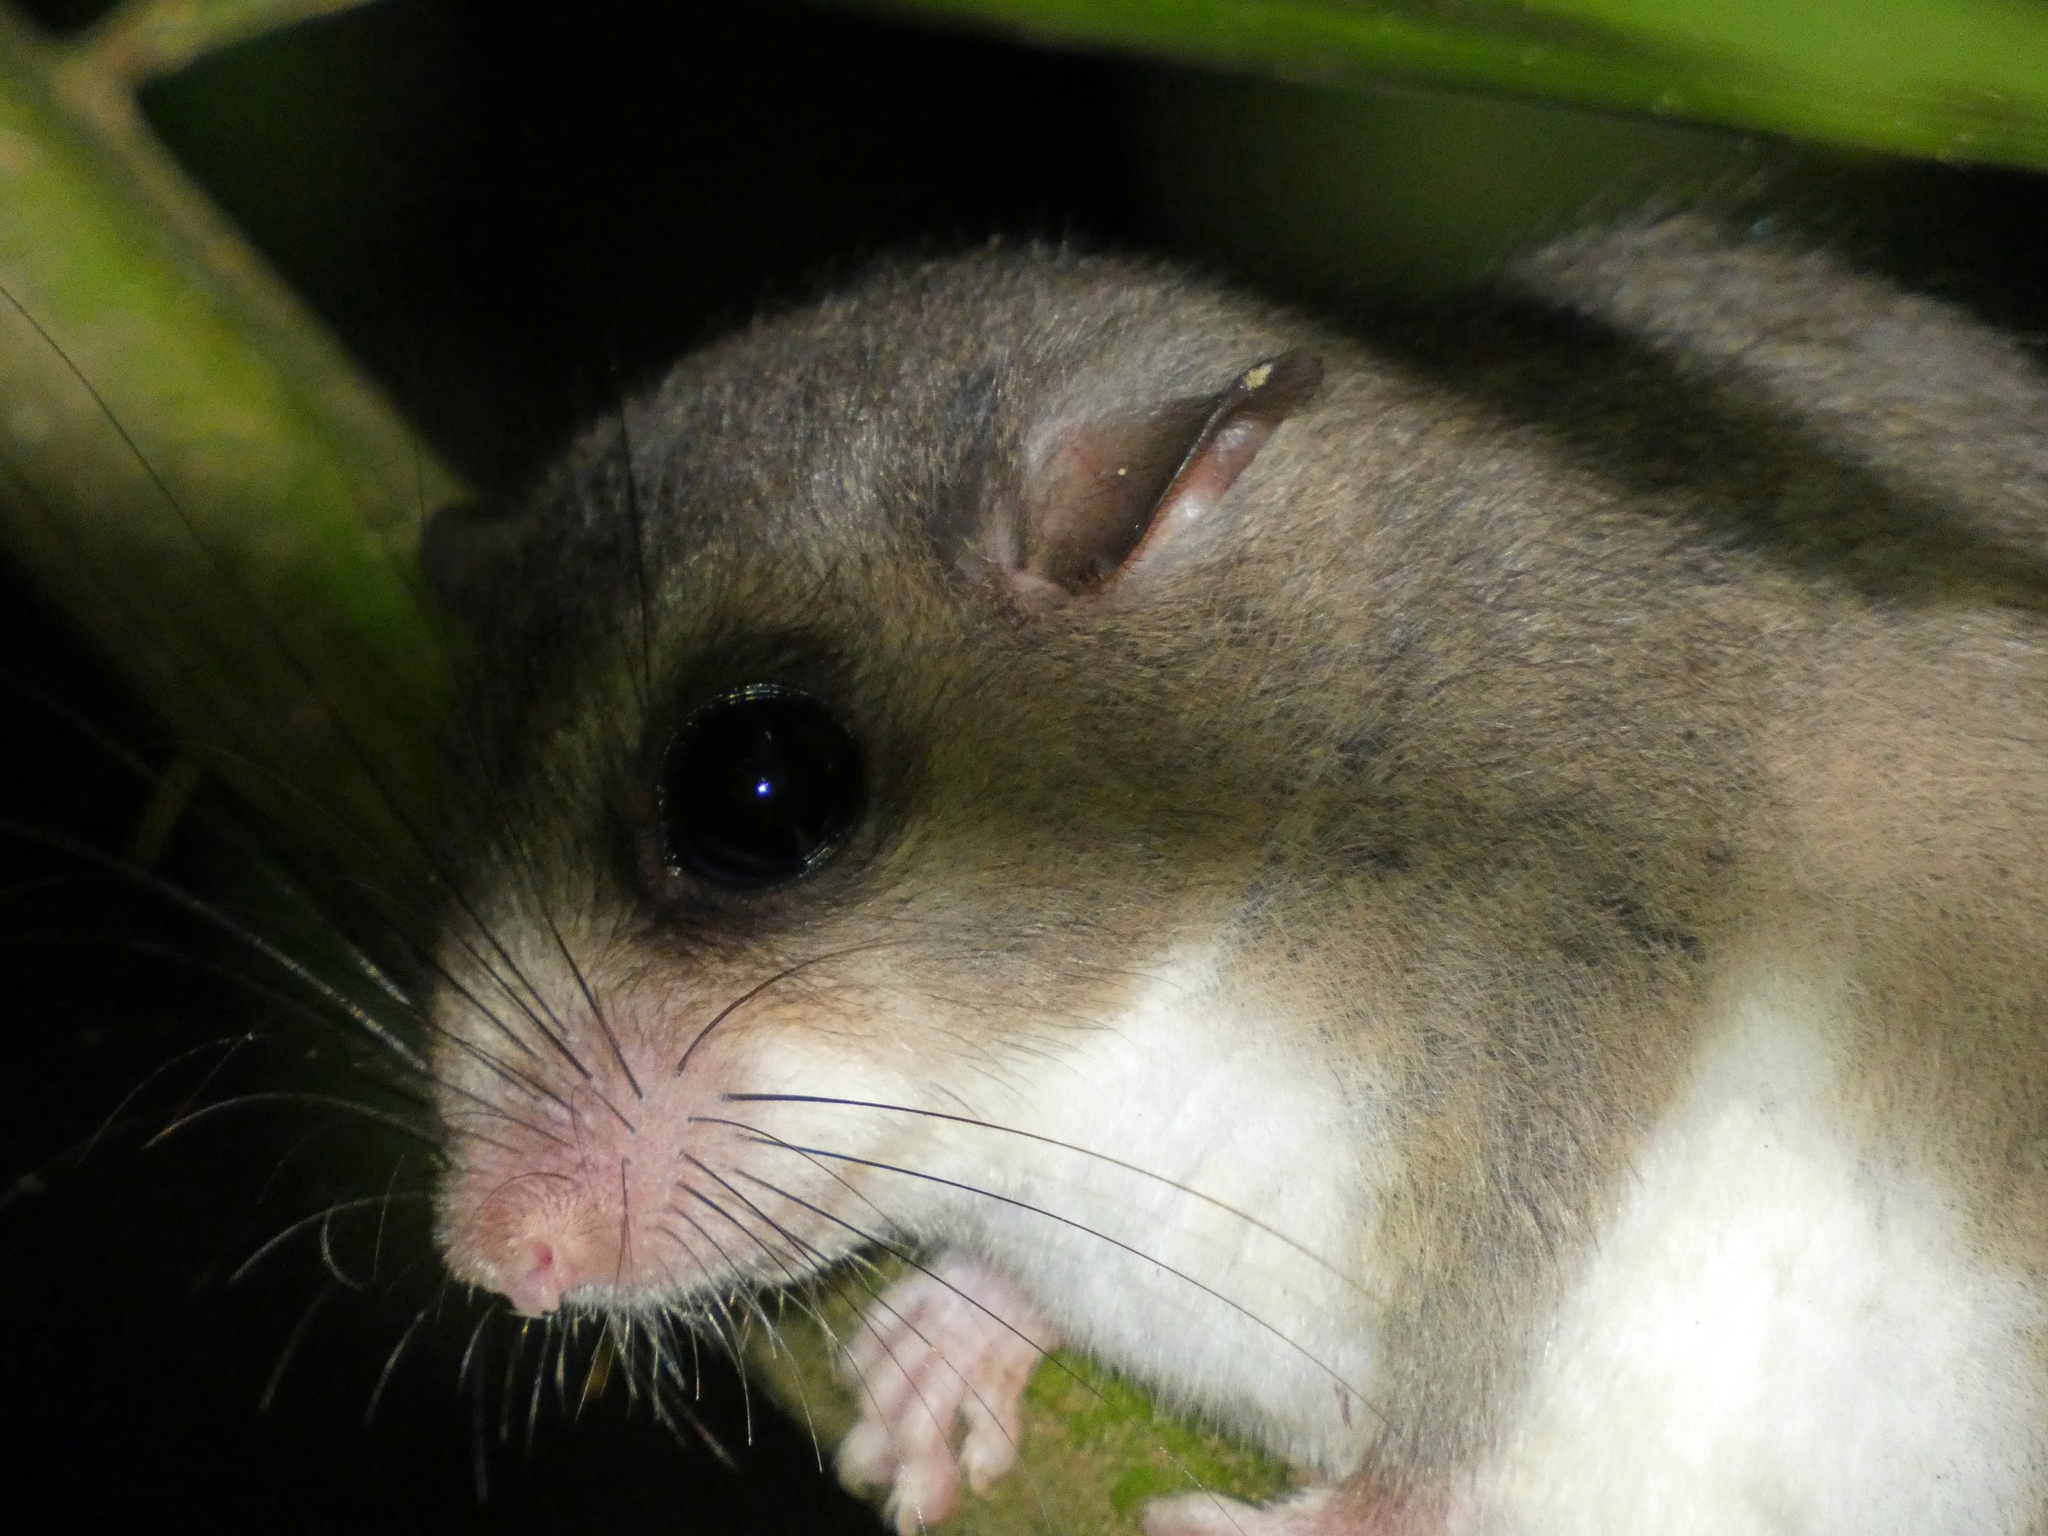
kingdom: Animalia
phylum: Chordata
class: Mammalia
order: Rodentia
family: Muridae
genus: Pogonomys
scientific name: Pogonomys macrourus
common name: Chestnut pogonomys
